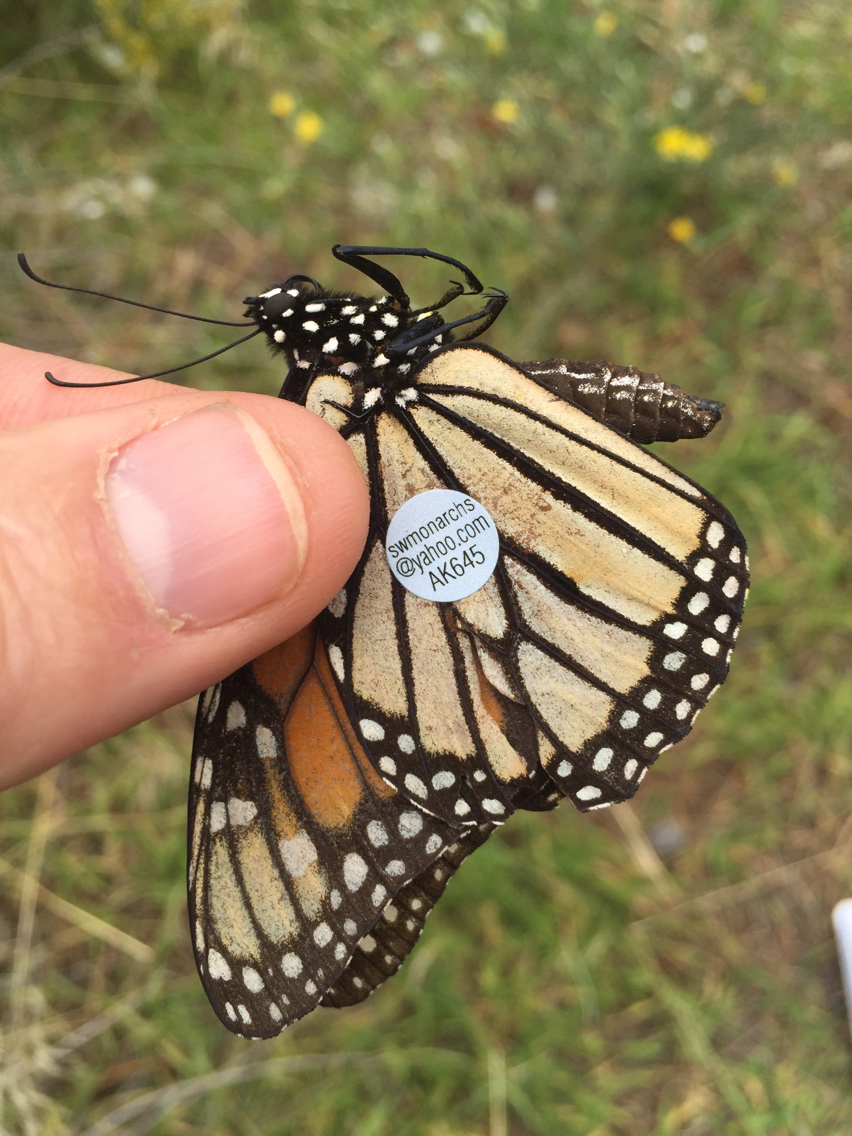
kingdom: Animalia
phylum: Arthropoda
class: Insecta
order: Lepidoptera
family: Nymphalidae
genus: Danaus
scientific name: Danaus plexippus
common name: Monarch
